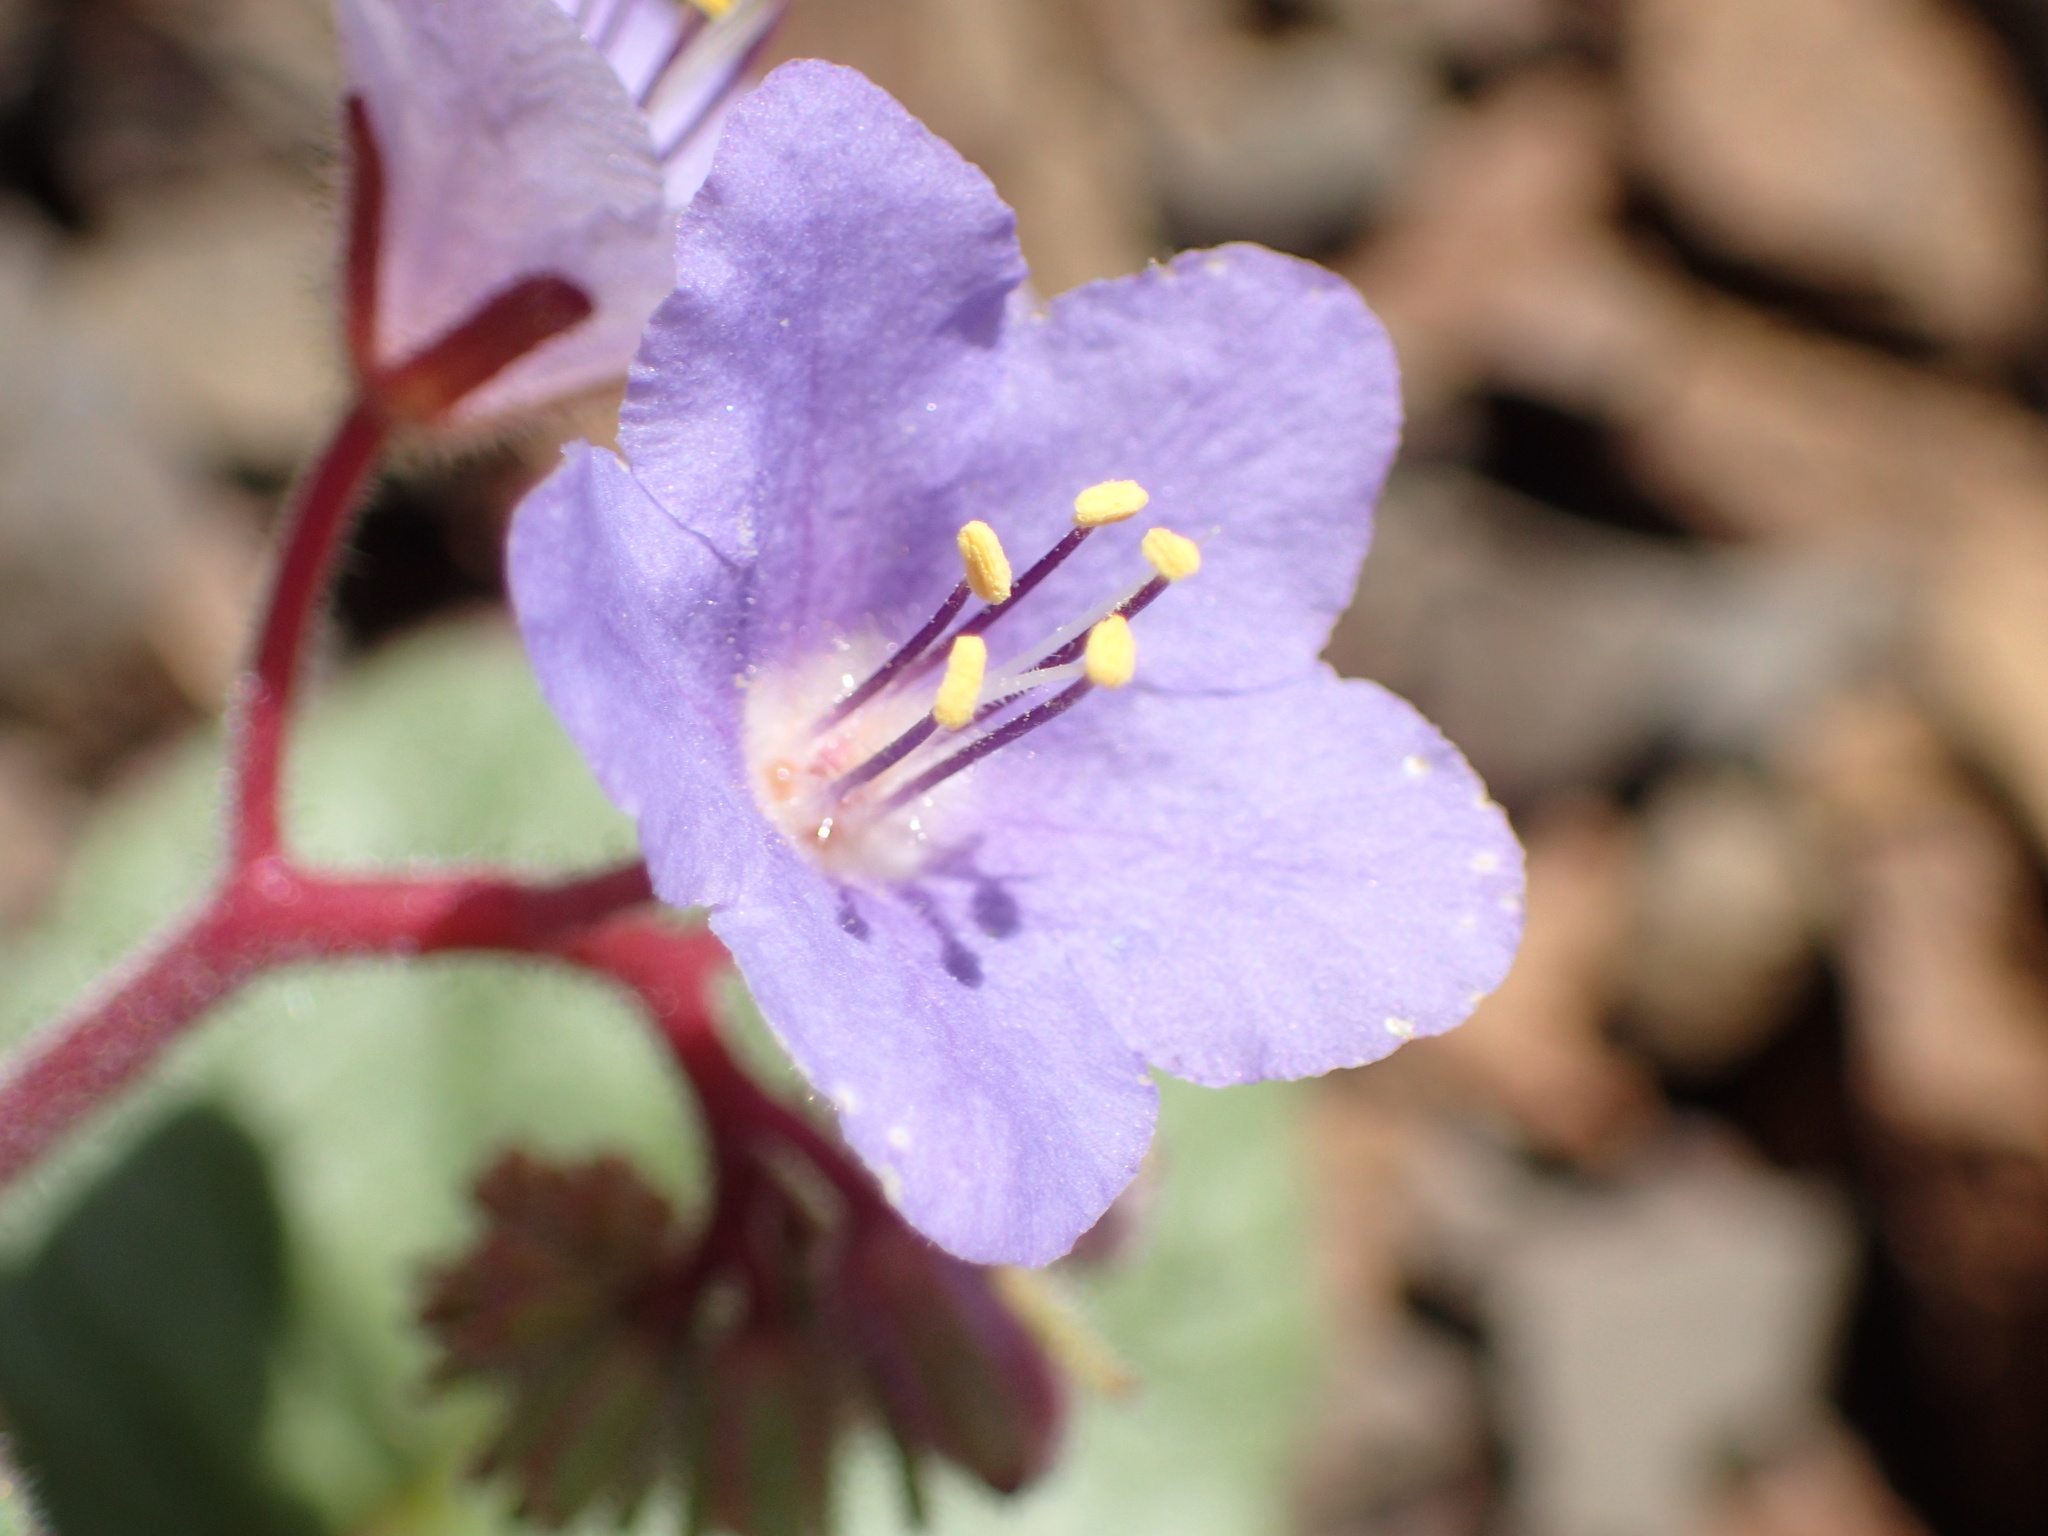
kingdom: Plantae
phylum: Tracheophyta
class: Magnoliopsida
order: Boraginales
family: Hydrophyllaceae
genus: Phacelia
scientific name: Phacelia longipes
